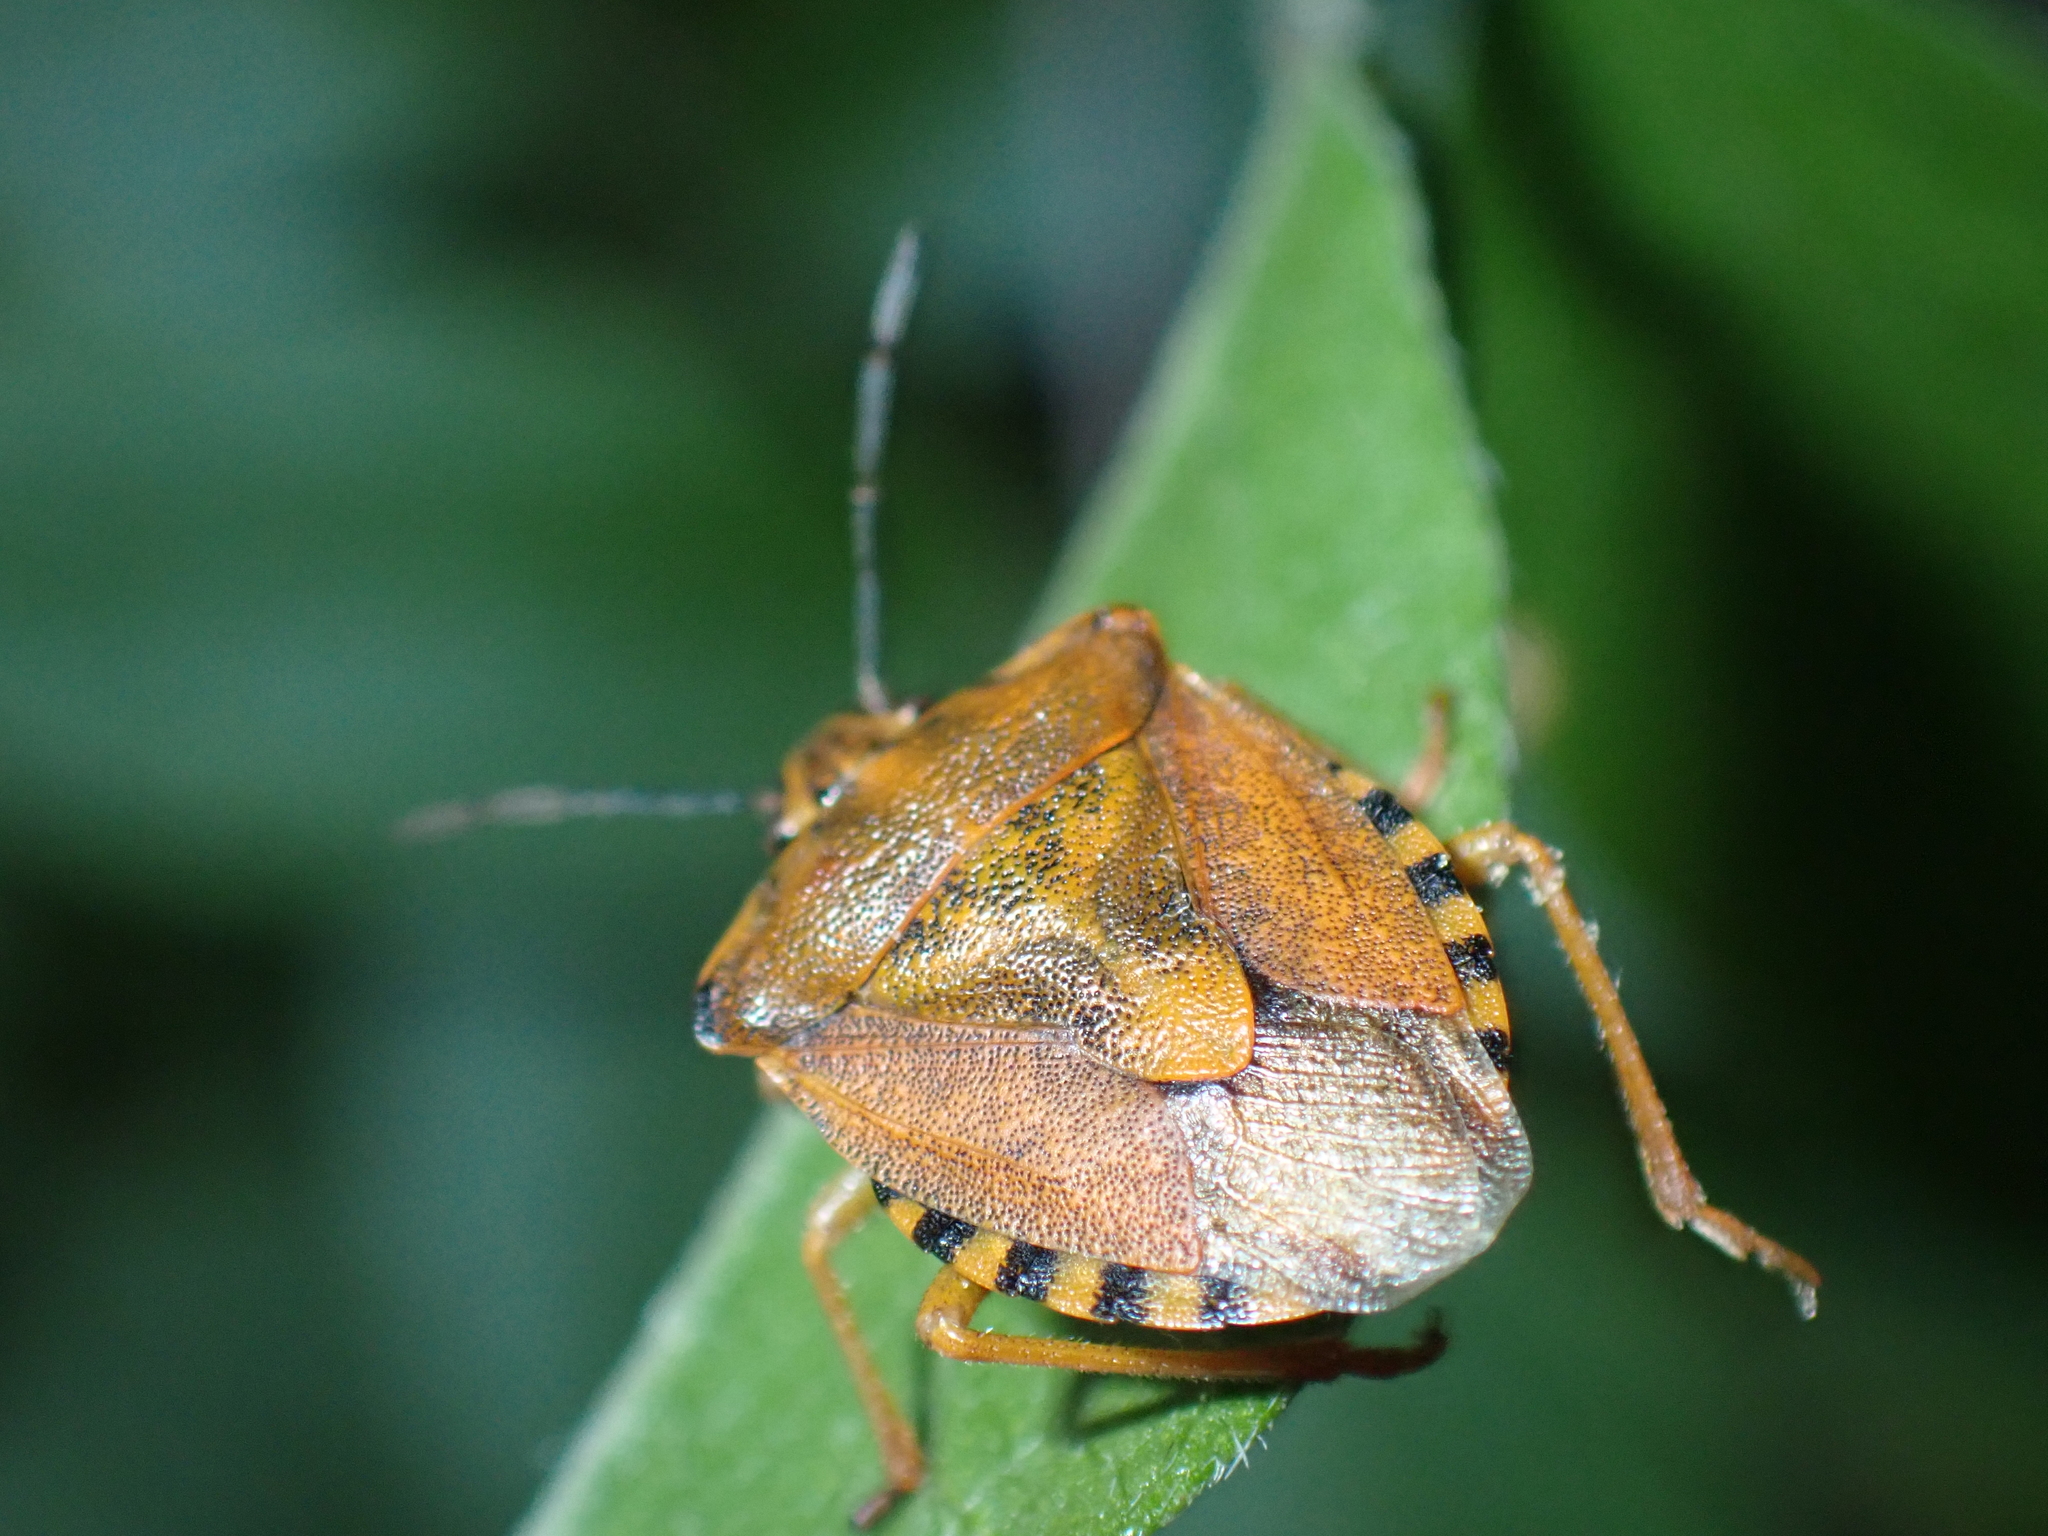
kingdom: Animalia
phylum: Arthropoda
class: Insecta
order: Hemiptera
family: Pentatomidae
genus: Carpocoris
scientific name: Carpocoris purpureipennis
